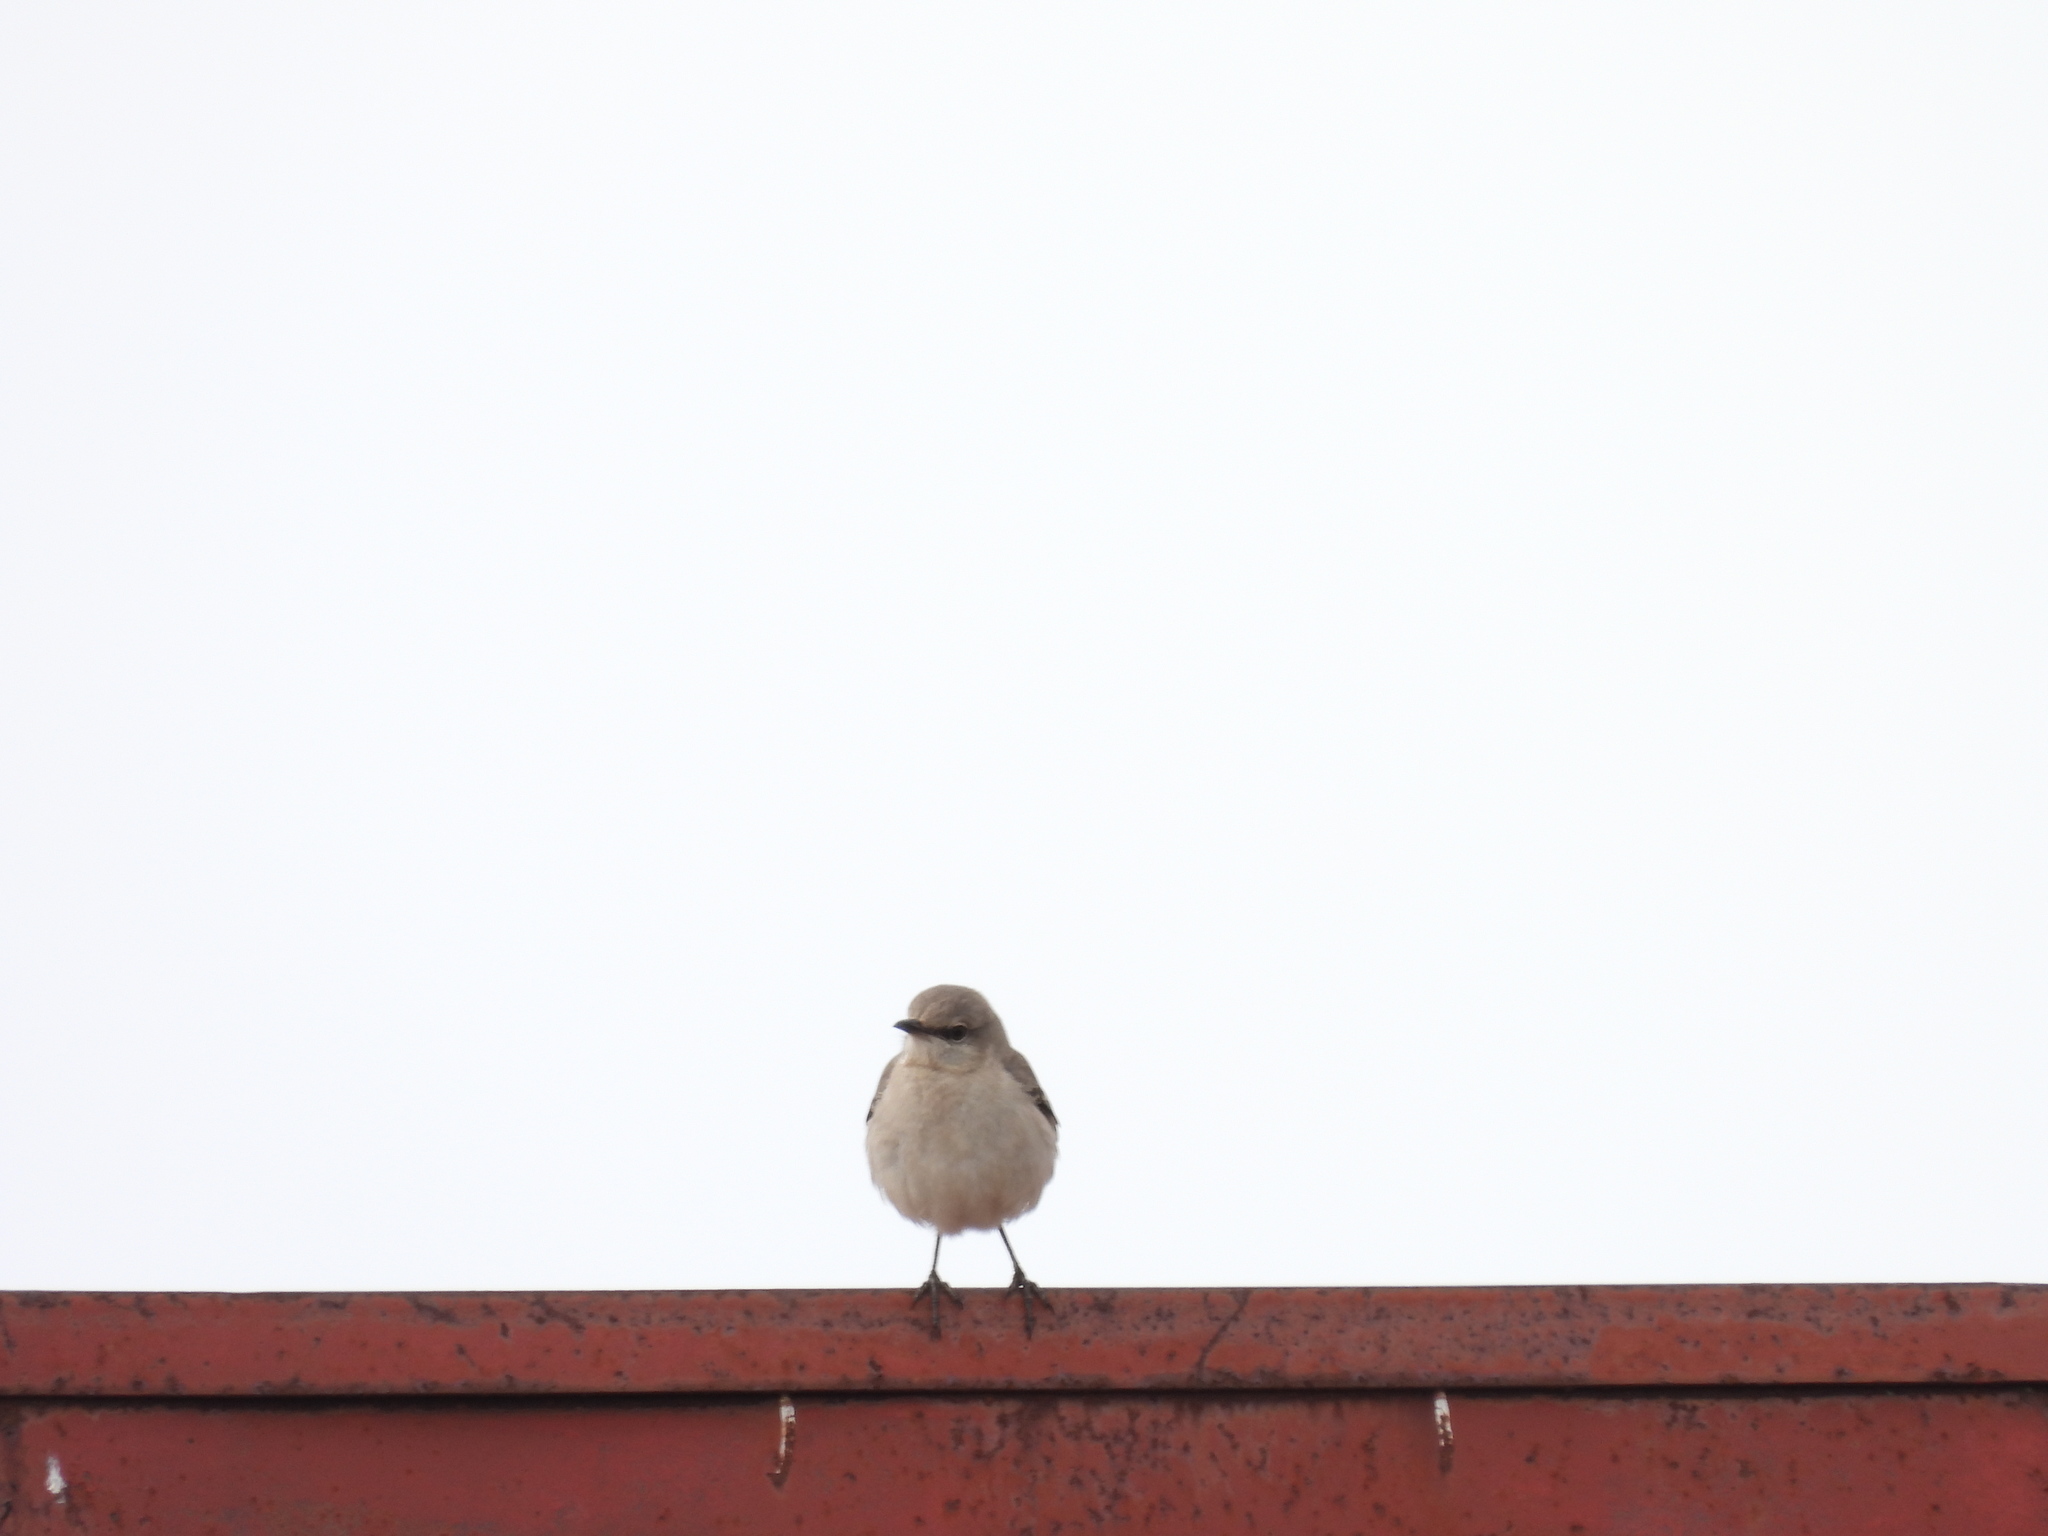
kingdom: Animalia
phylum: Chordata
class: Aves
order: Passeriformes
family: Mimidae
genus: Mimus
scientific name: Mimus polyglottos
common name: Northern mockingbird
